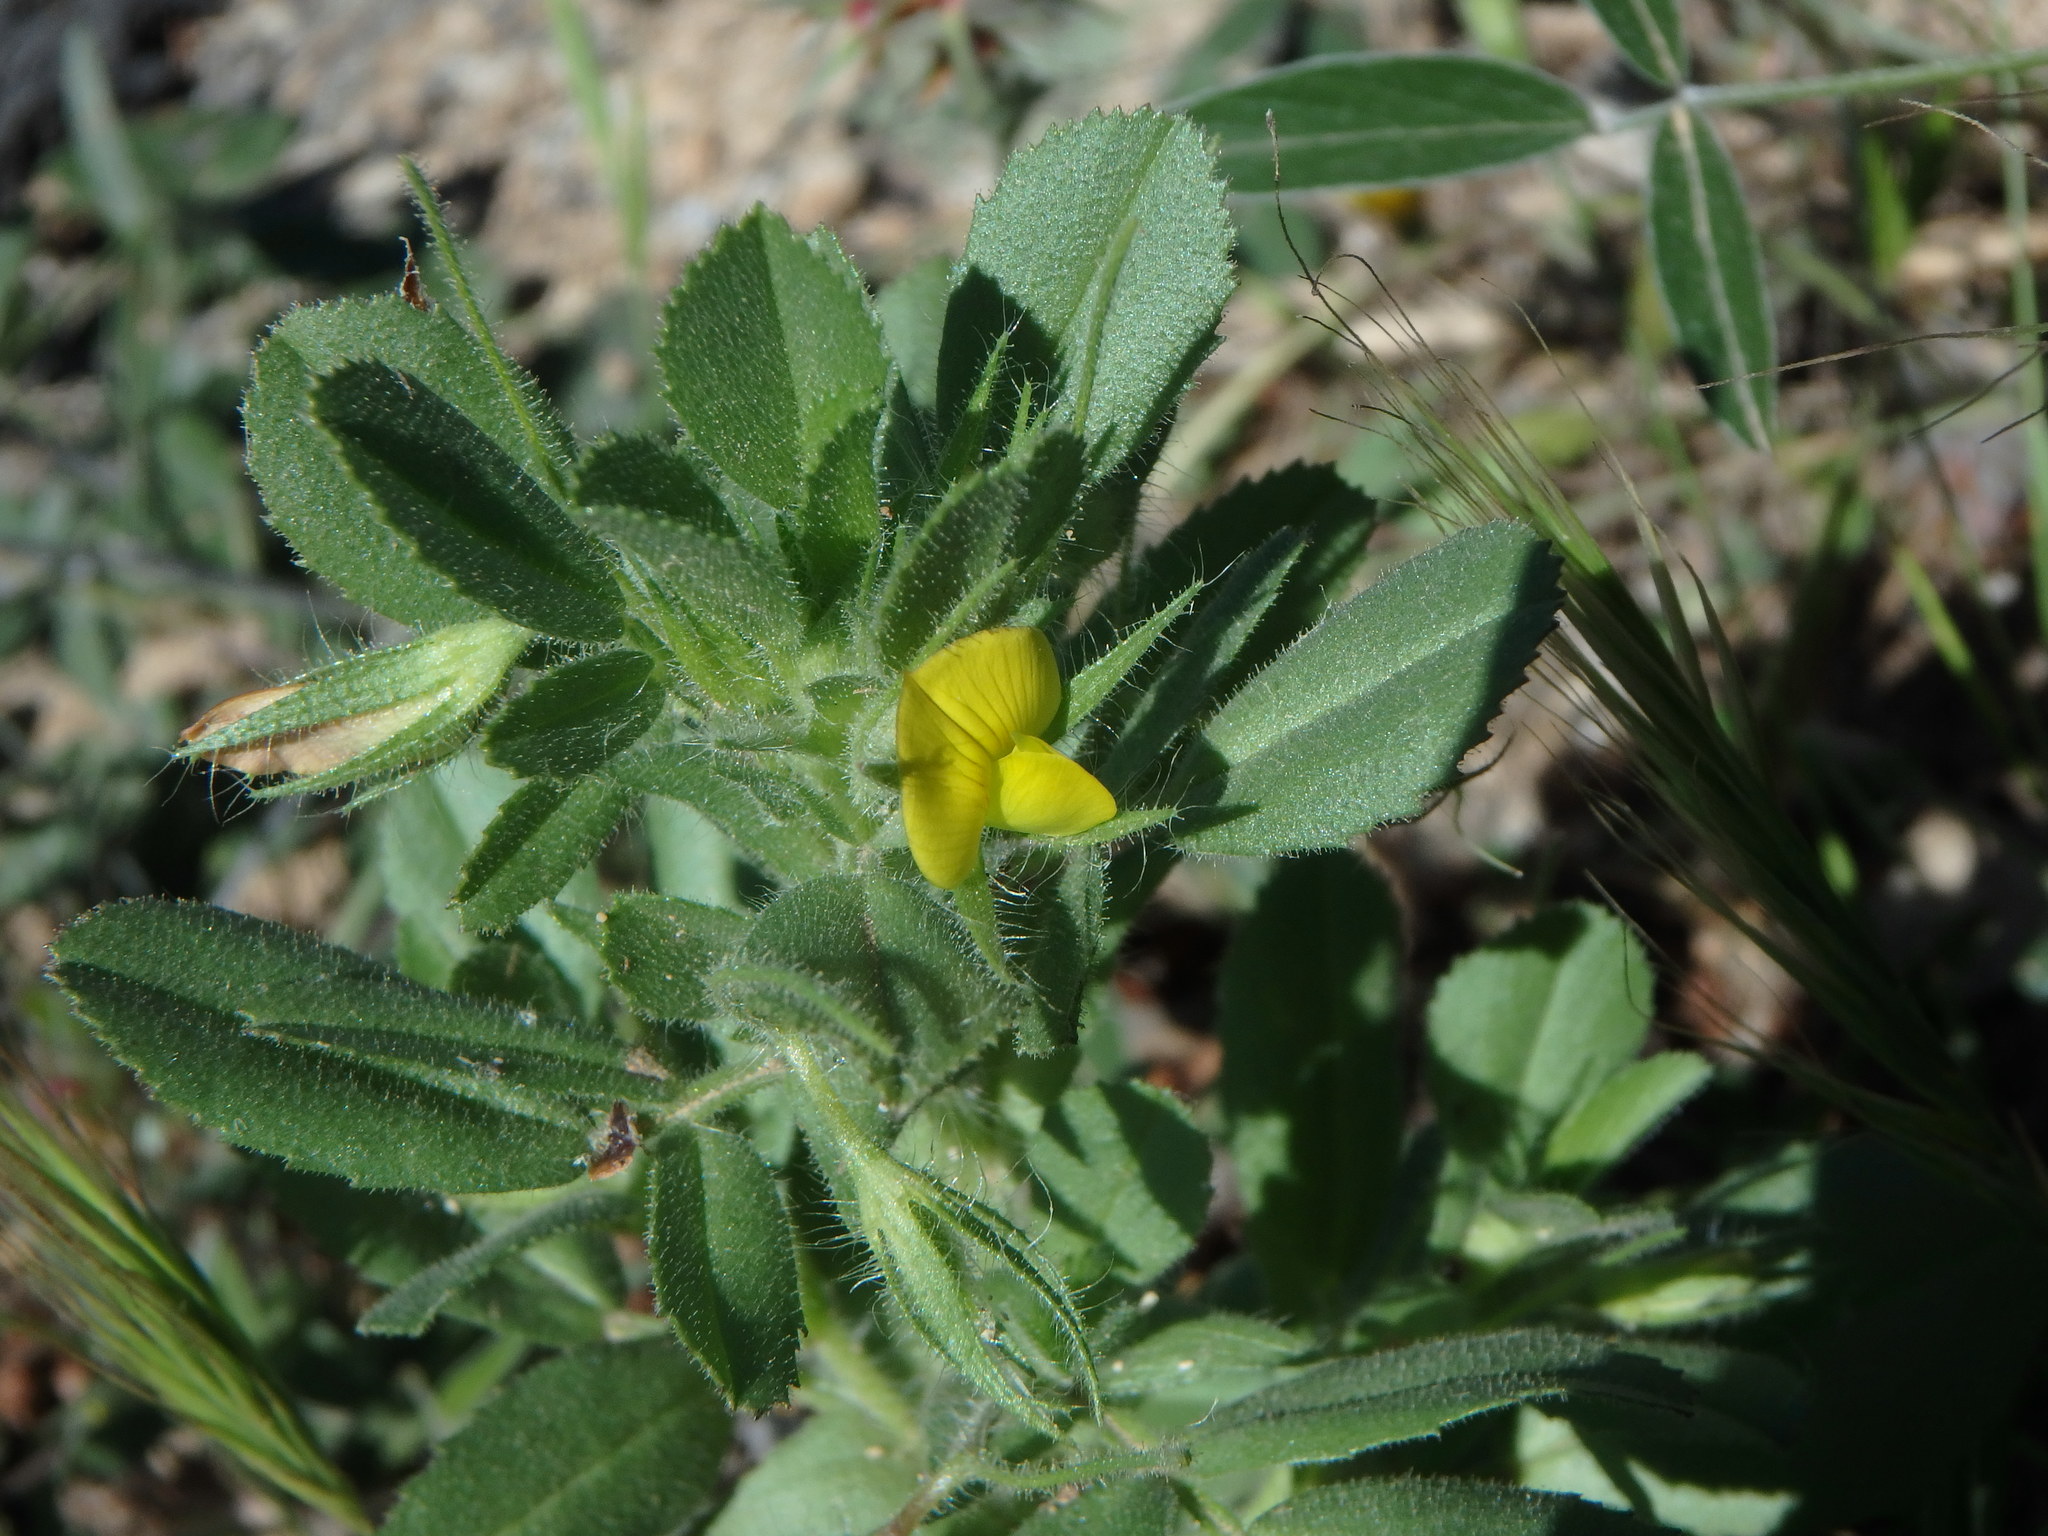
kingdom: Plantae
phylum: Tracheophyta
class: Magnoliopsida
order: Fabales
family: Fabaceae
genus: Ononis
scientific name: Ononis viscosa
